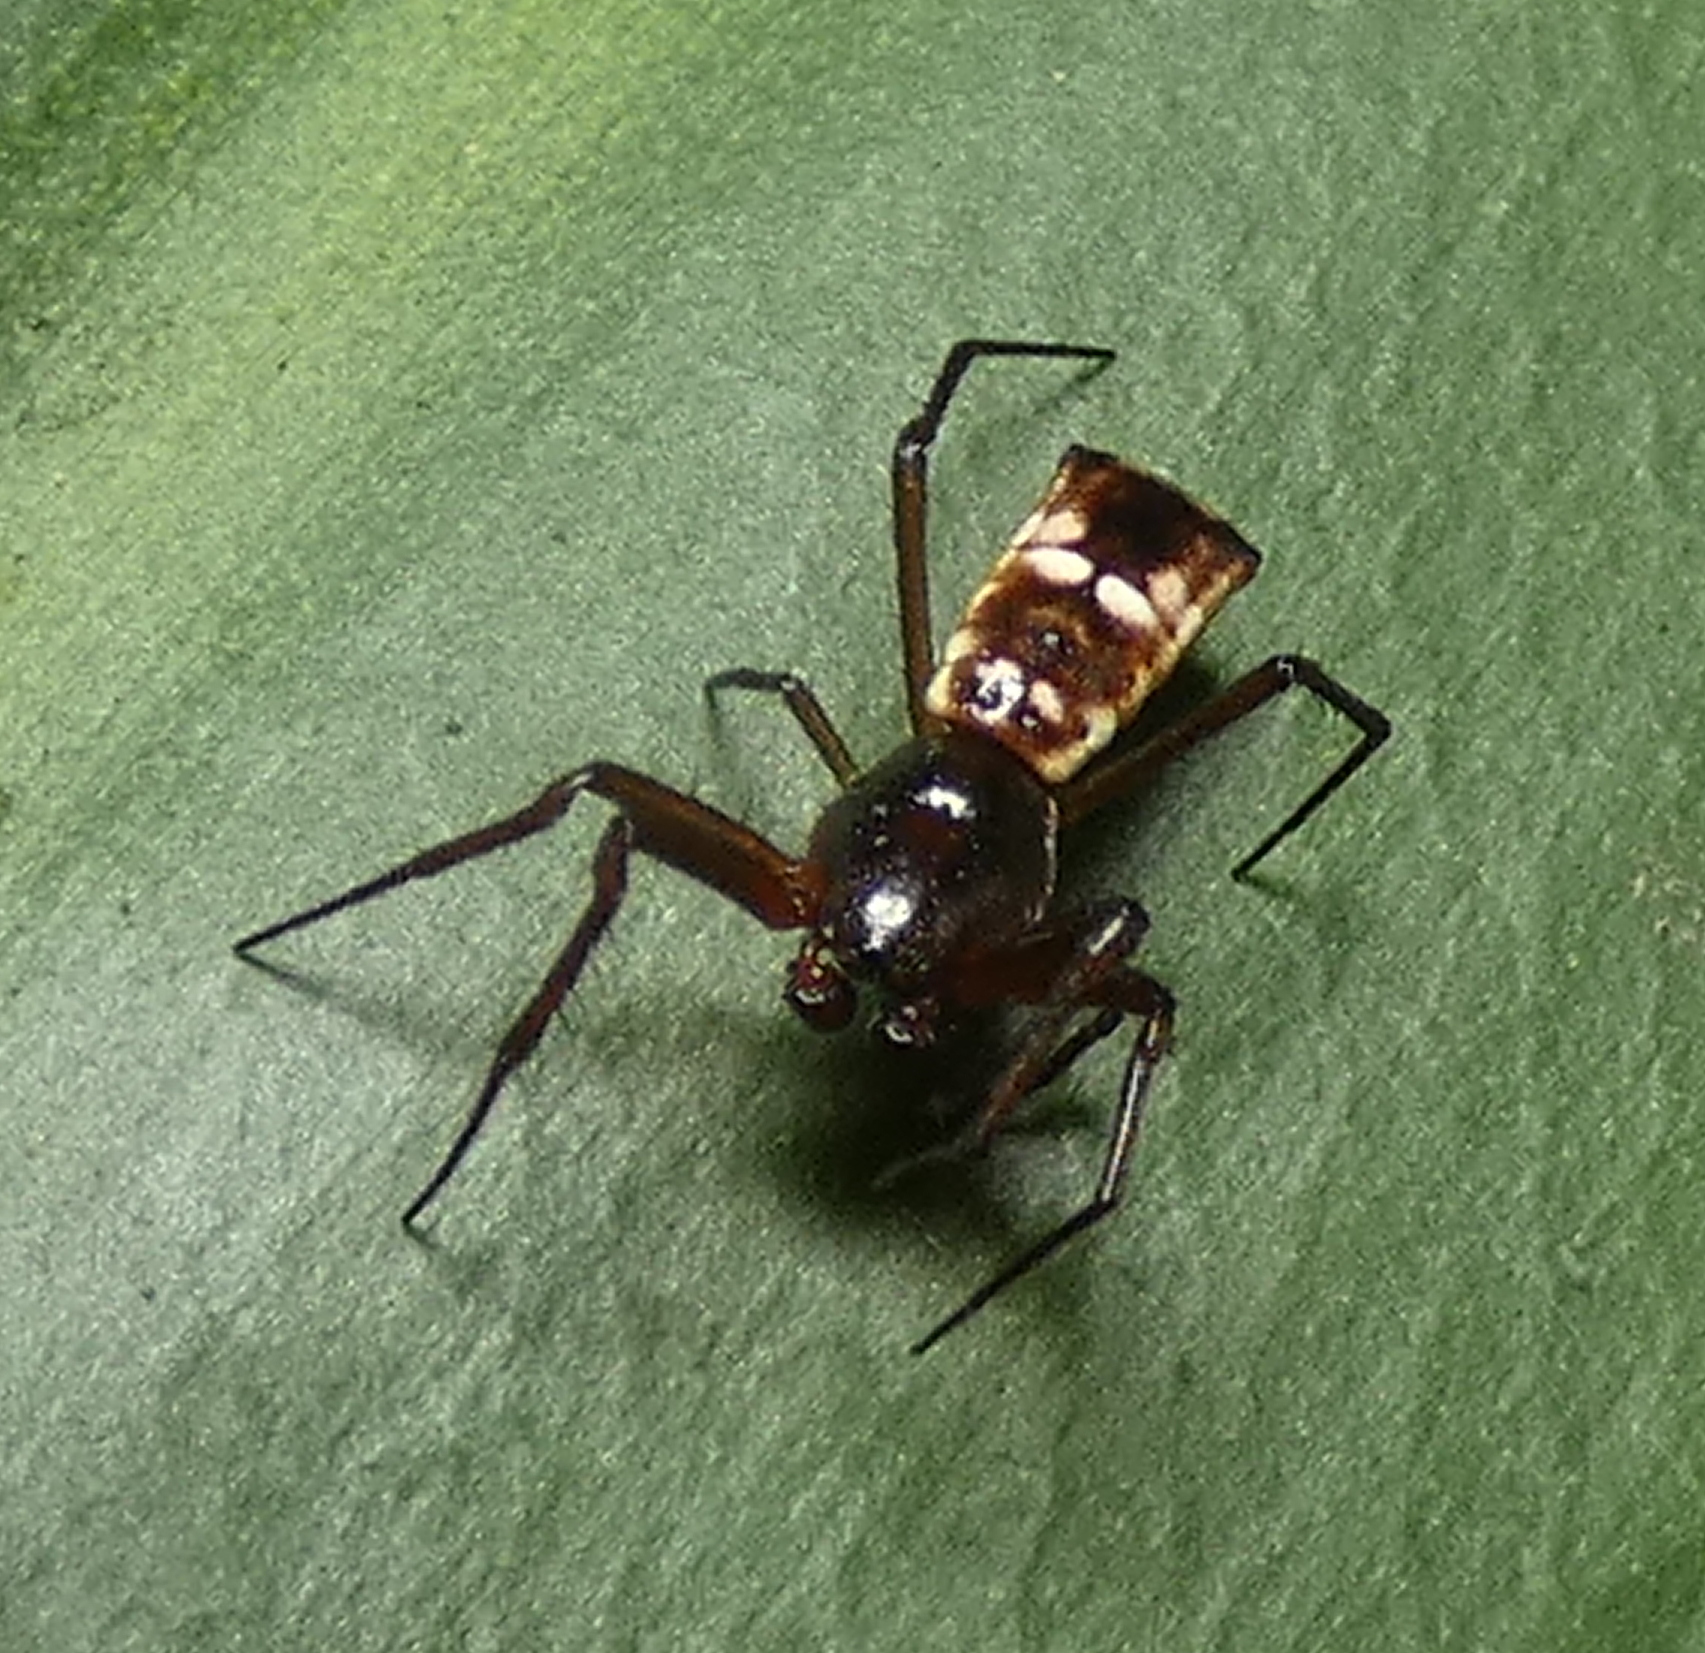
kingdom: Animalia
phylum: Arthropoda
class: Arachnida
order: Araneae
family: Araneidae
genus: Micrathena
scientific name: Micrathena fissispina
